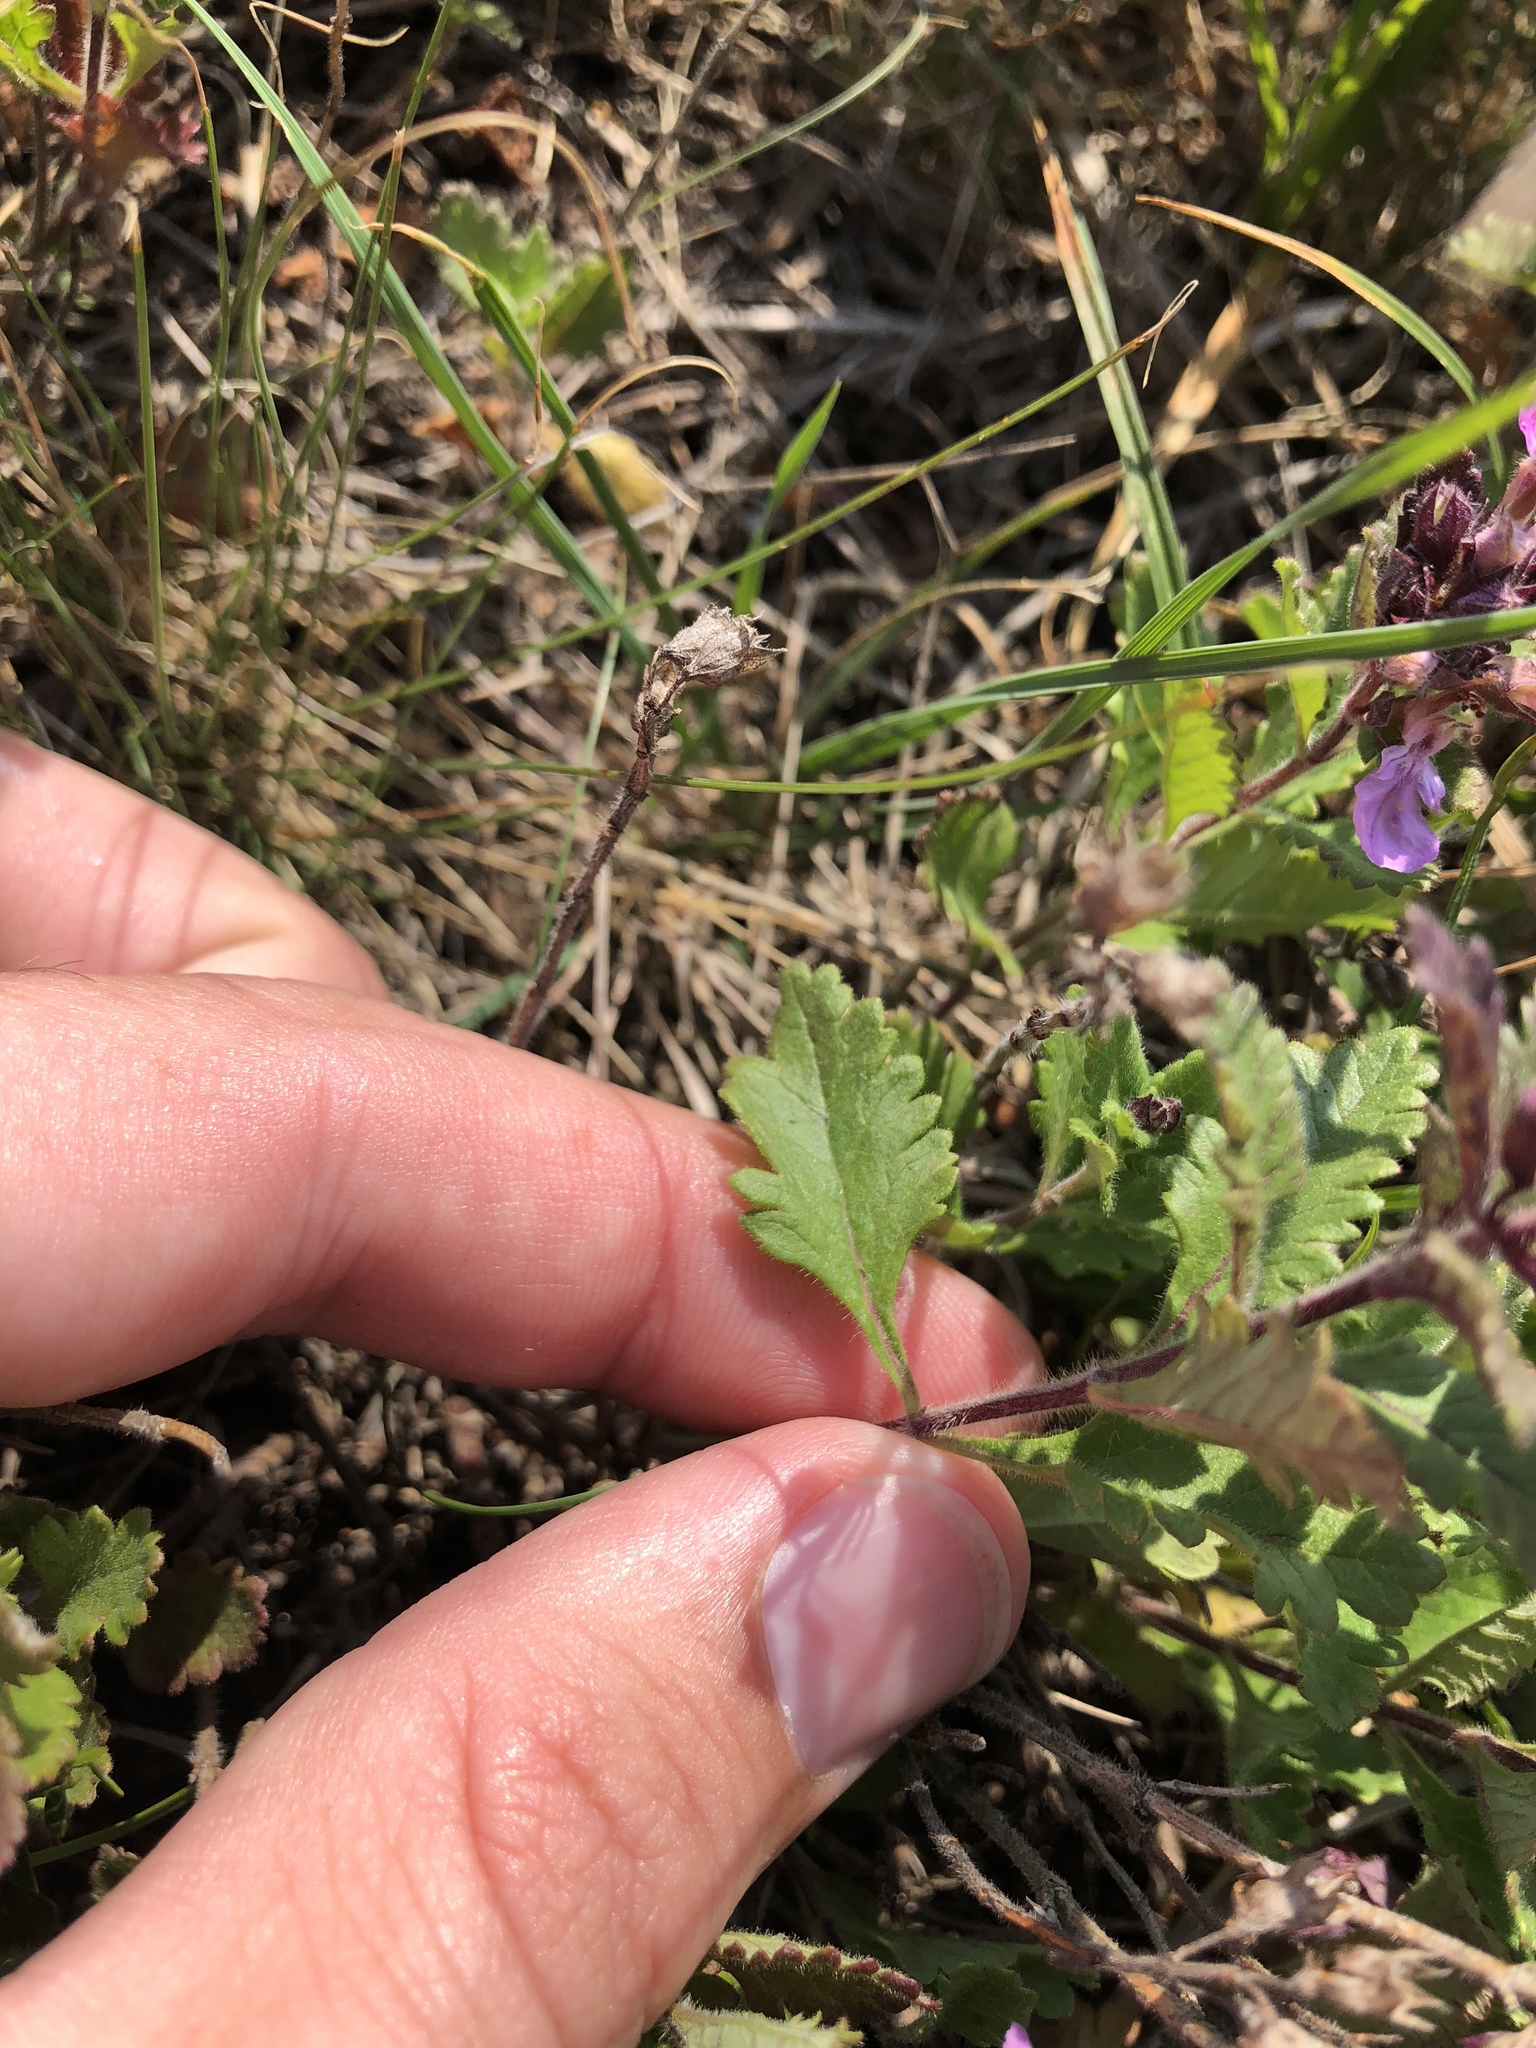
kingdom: Plantae
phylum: Tracheophyta
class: Magnoliopsida
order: Lamiales
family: Lamiaceae
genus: Teucrium
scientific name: Teucrium chamaedrys
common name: Wall germander
